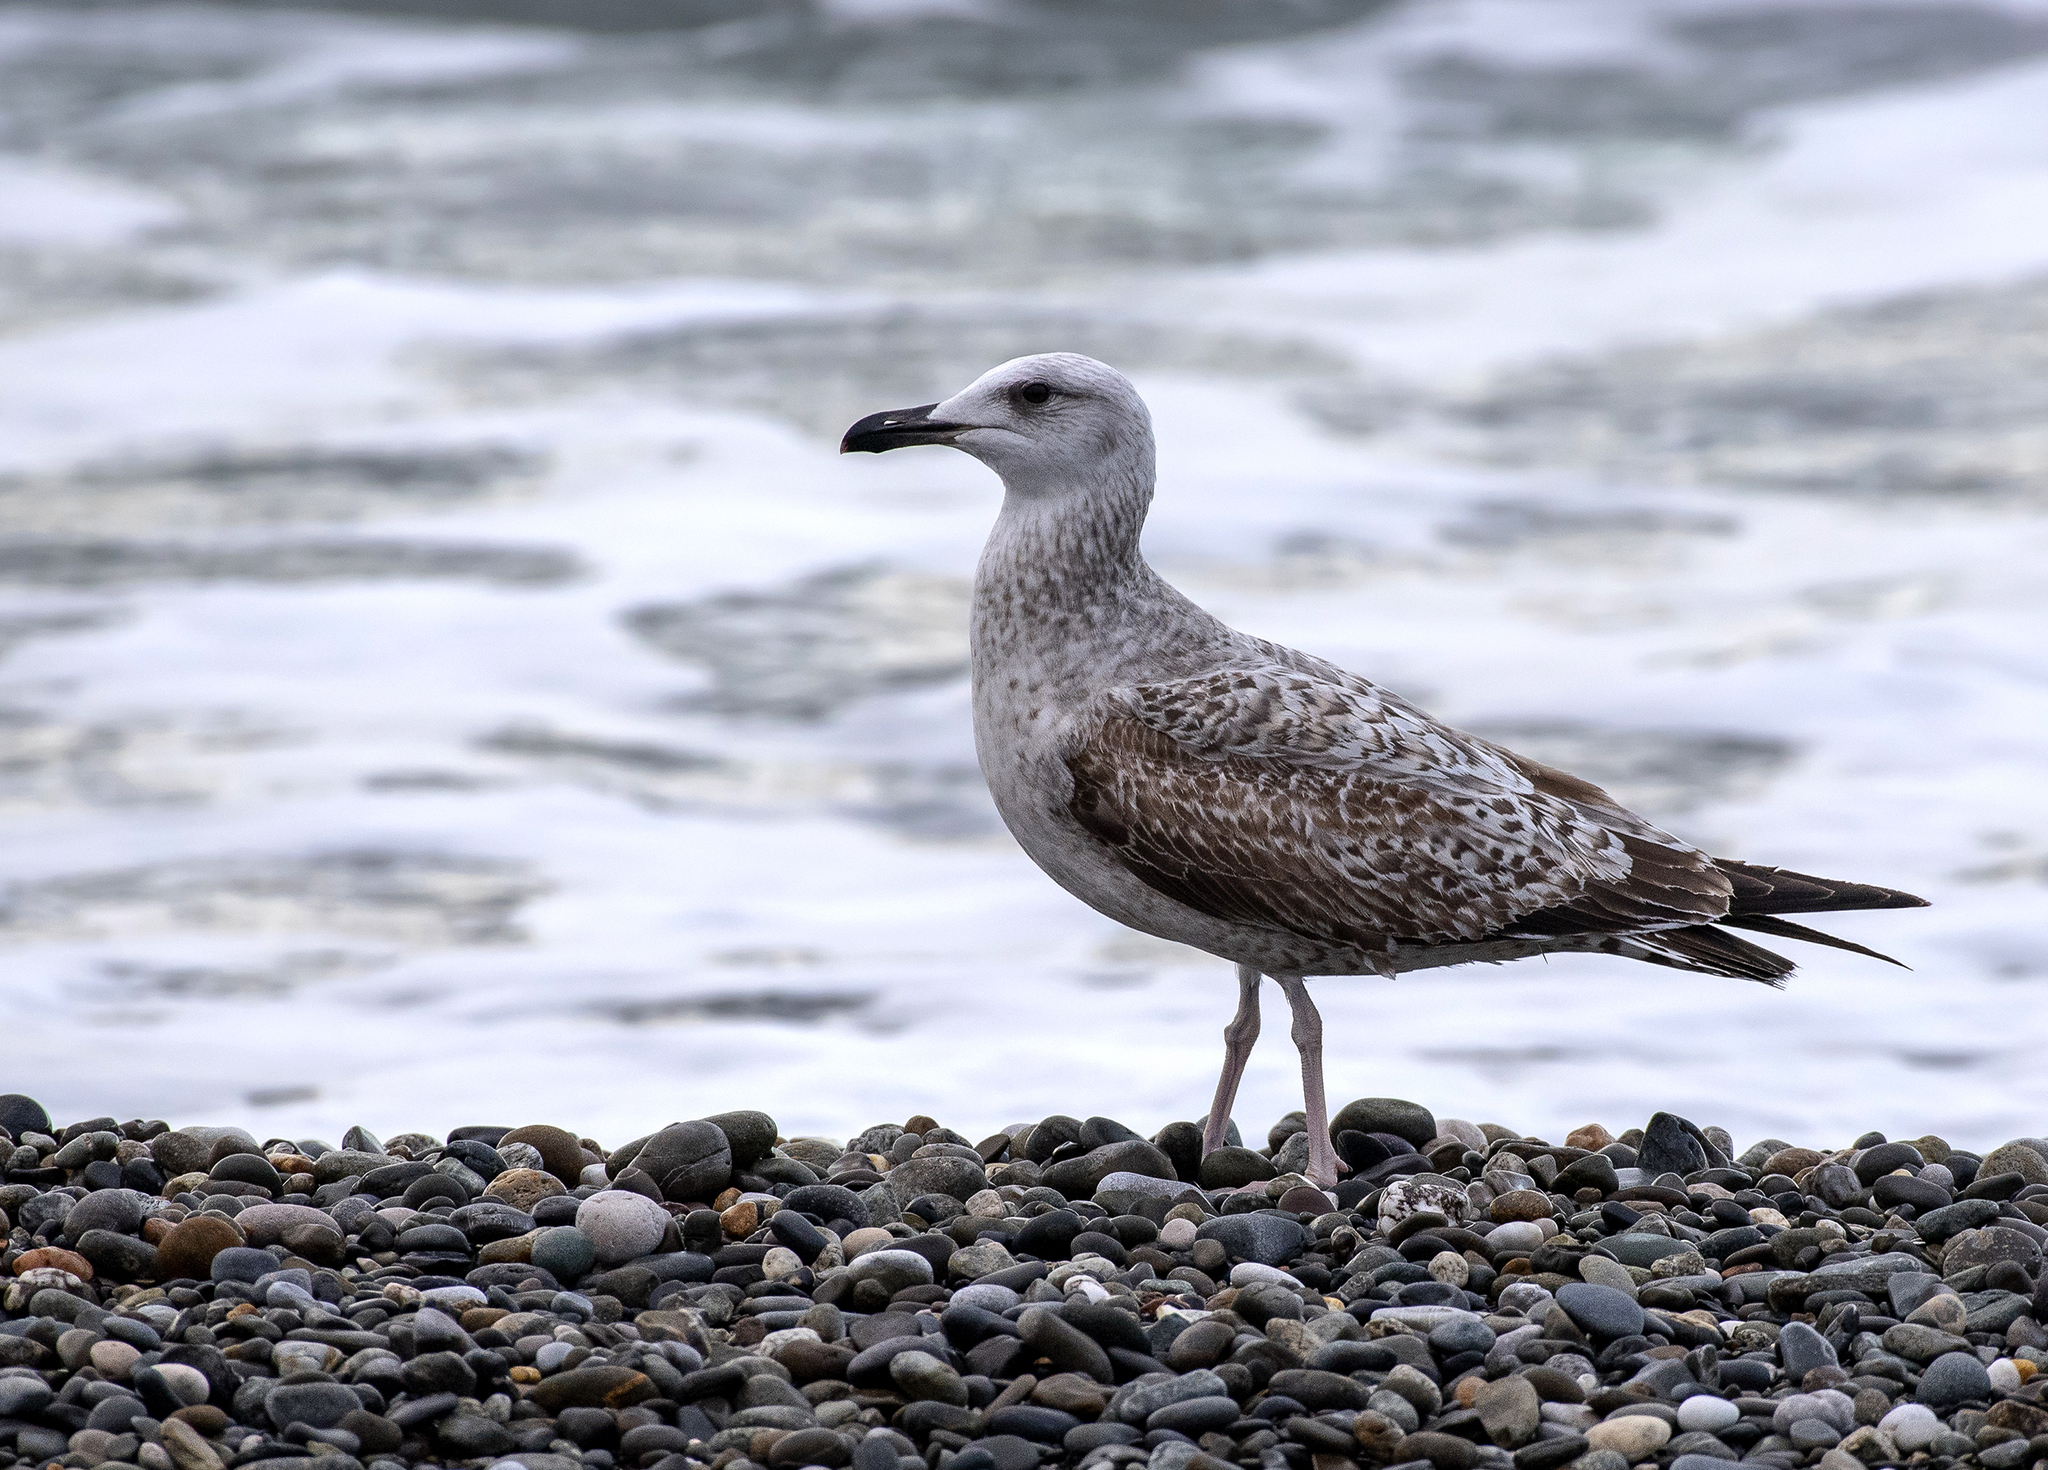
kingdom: Animalia
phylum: Chordata
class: Aves
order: Charadriiformes
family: Laridae
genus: Larus
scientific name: Larus michahellis
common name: Yellow-legged gull
